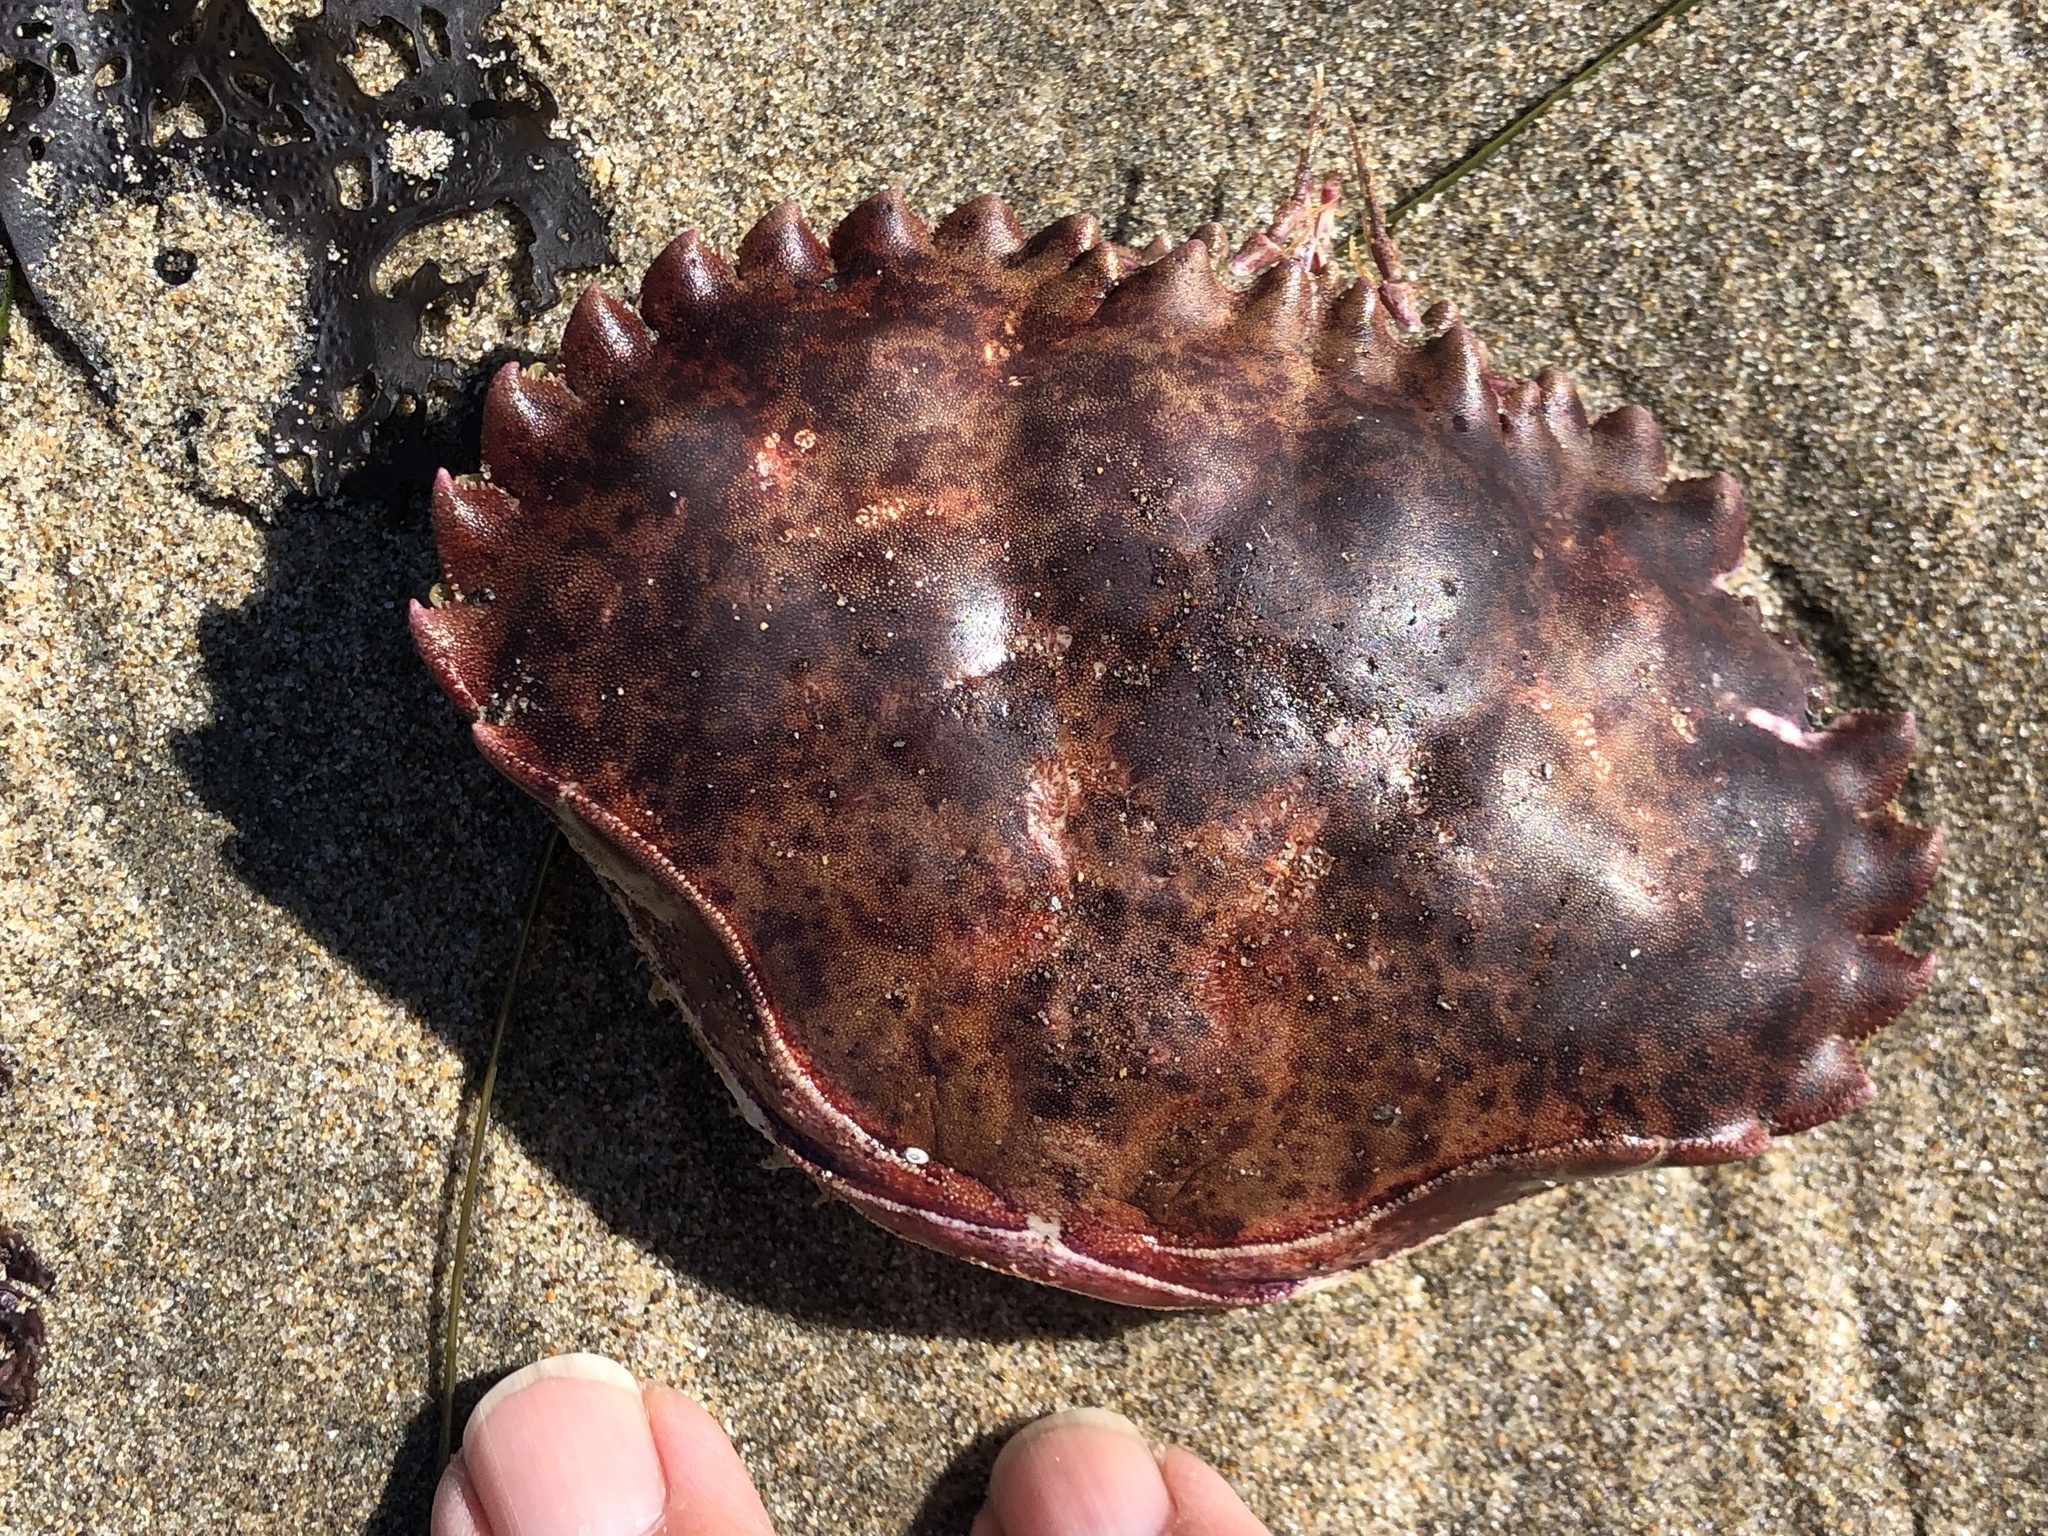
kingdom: Animalia
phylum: Arthropoda
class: Malacostraca
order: Decapoda
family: Cancridae
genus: Romaleon
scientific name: Romaleon antennarium
